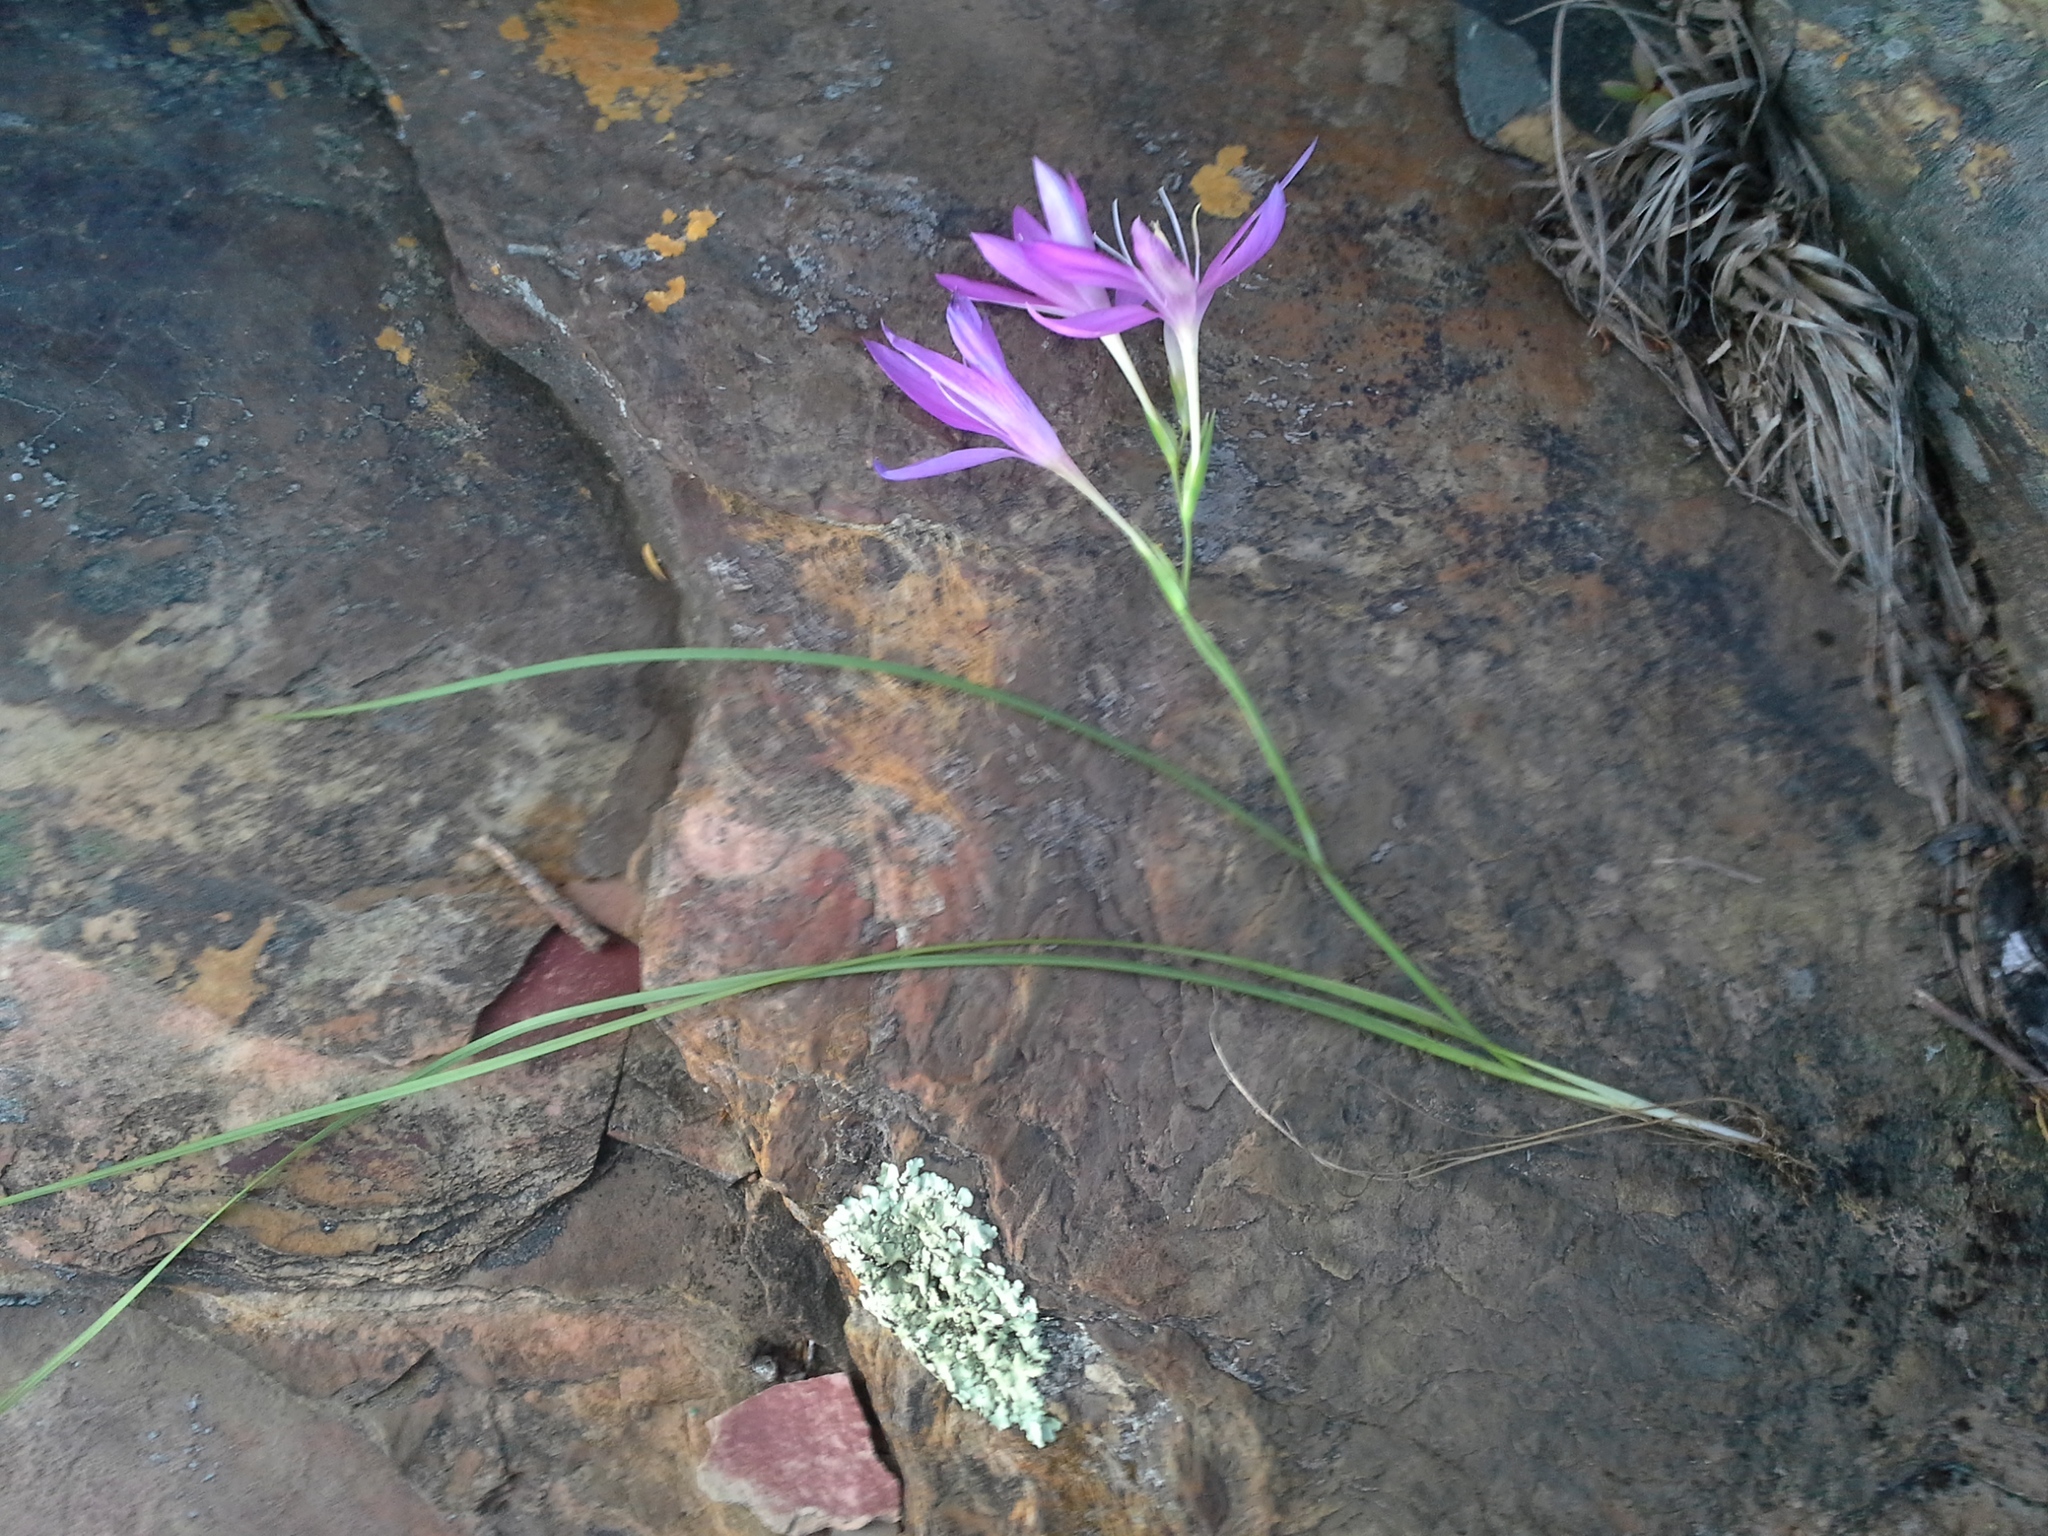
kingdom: Plantae
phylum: Tracheophyta
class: Liliopsida
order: Asparagales
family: Iridaceae
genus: Hesperantha
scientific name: Hesperantha baurii
